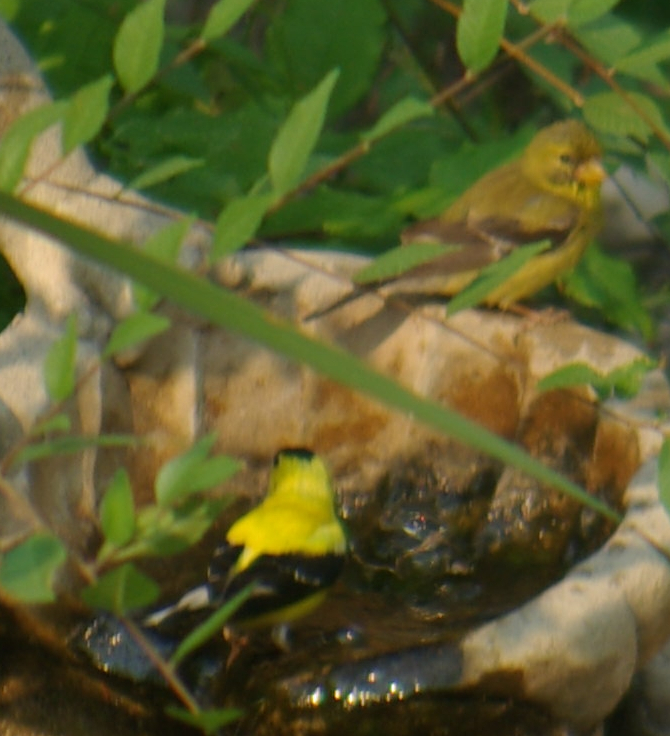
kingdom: Animalia
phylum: Chordata
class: Aves
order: Passeriformes
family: Fringillidae
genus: Spinus
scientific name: Spinus tristis
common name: American goldfinch
